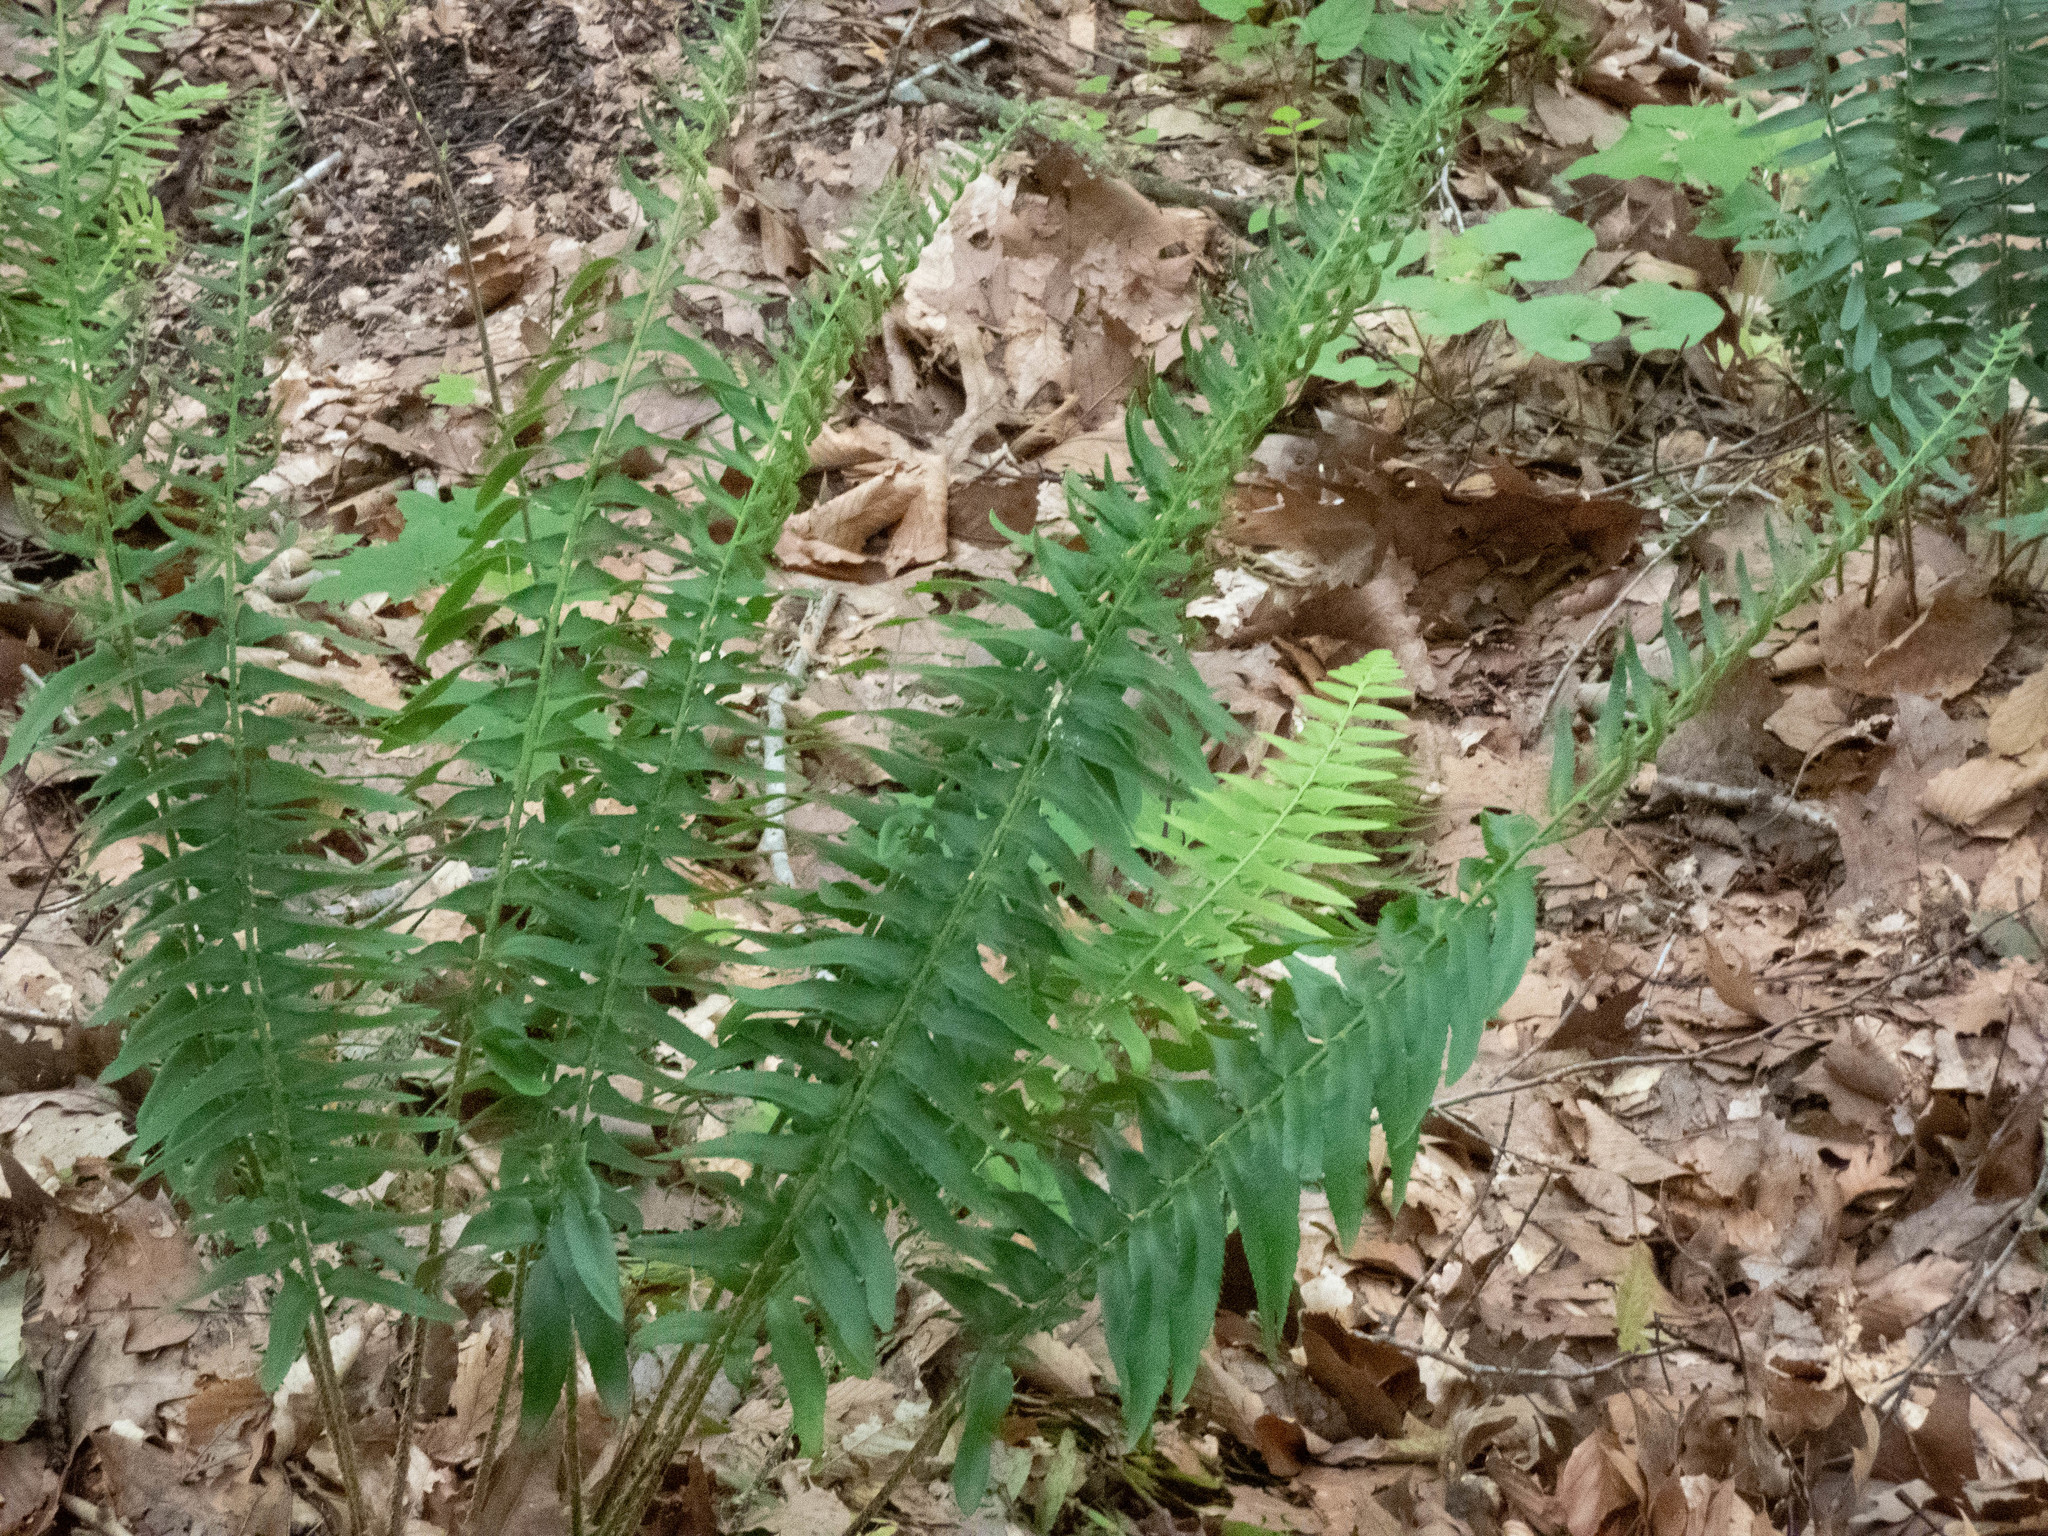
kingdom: Plantae
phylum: Tracheophyta
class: Polypodiopsida
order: Polypodiales
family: Dryopteridaceae
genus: Polystichum
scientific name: Polystichum acrostichoides
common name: Christmas fern
